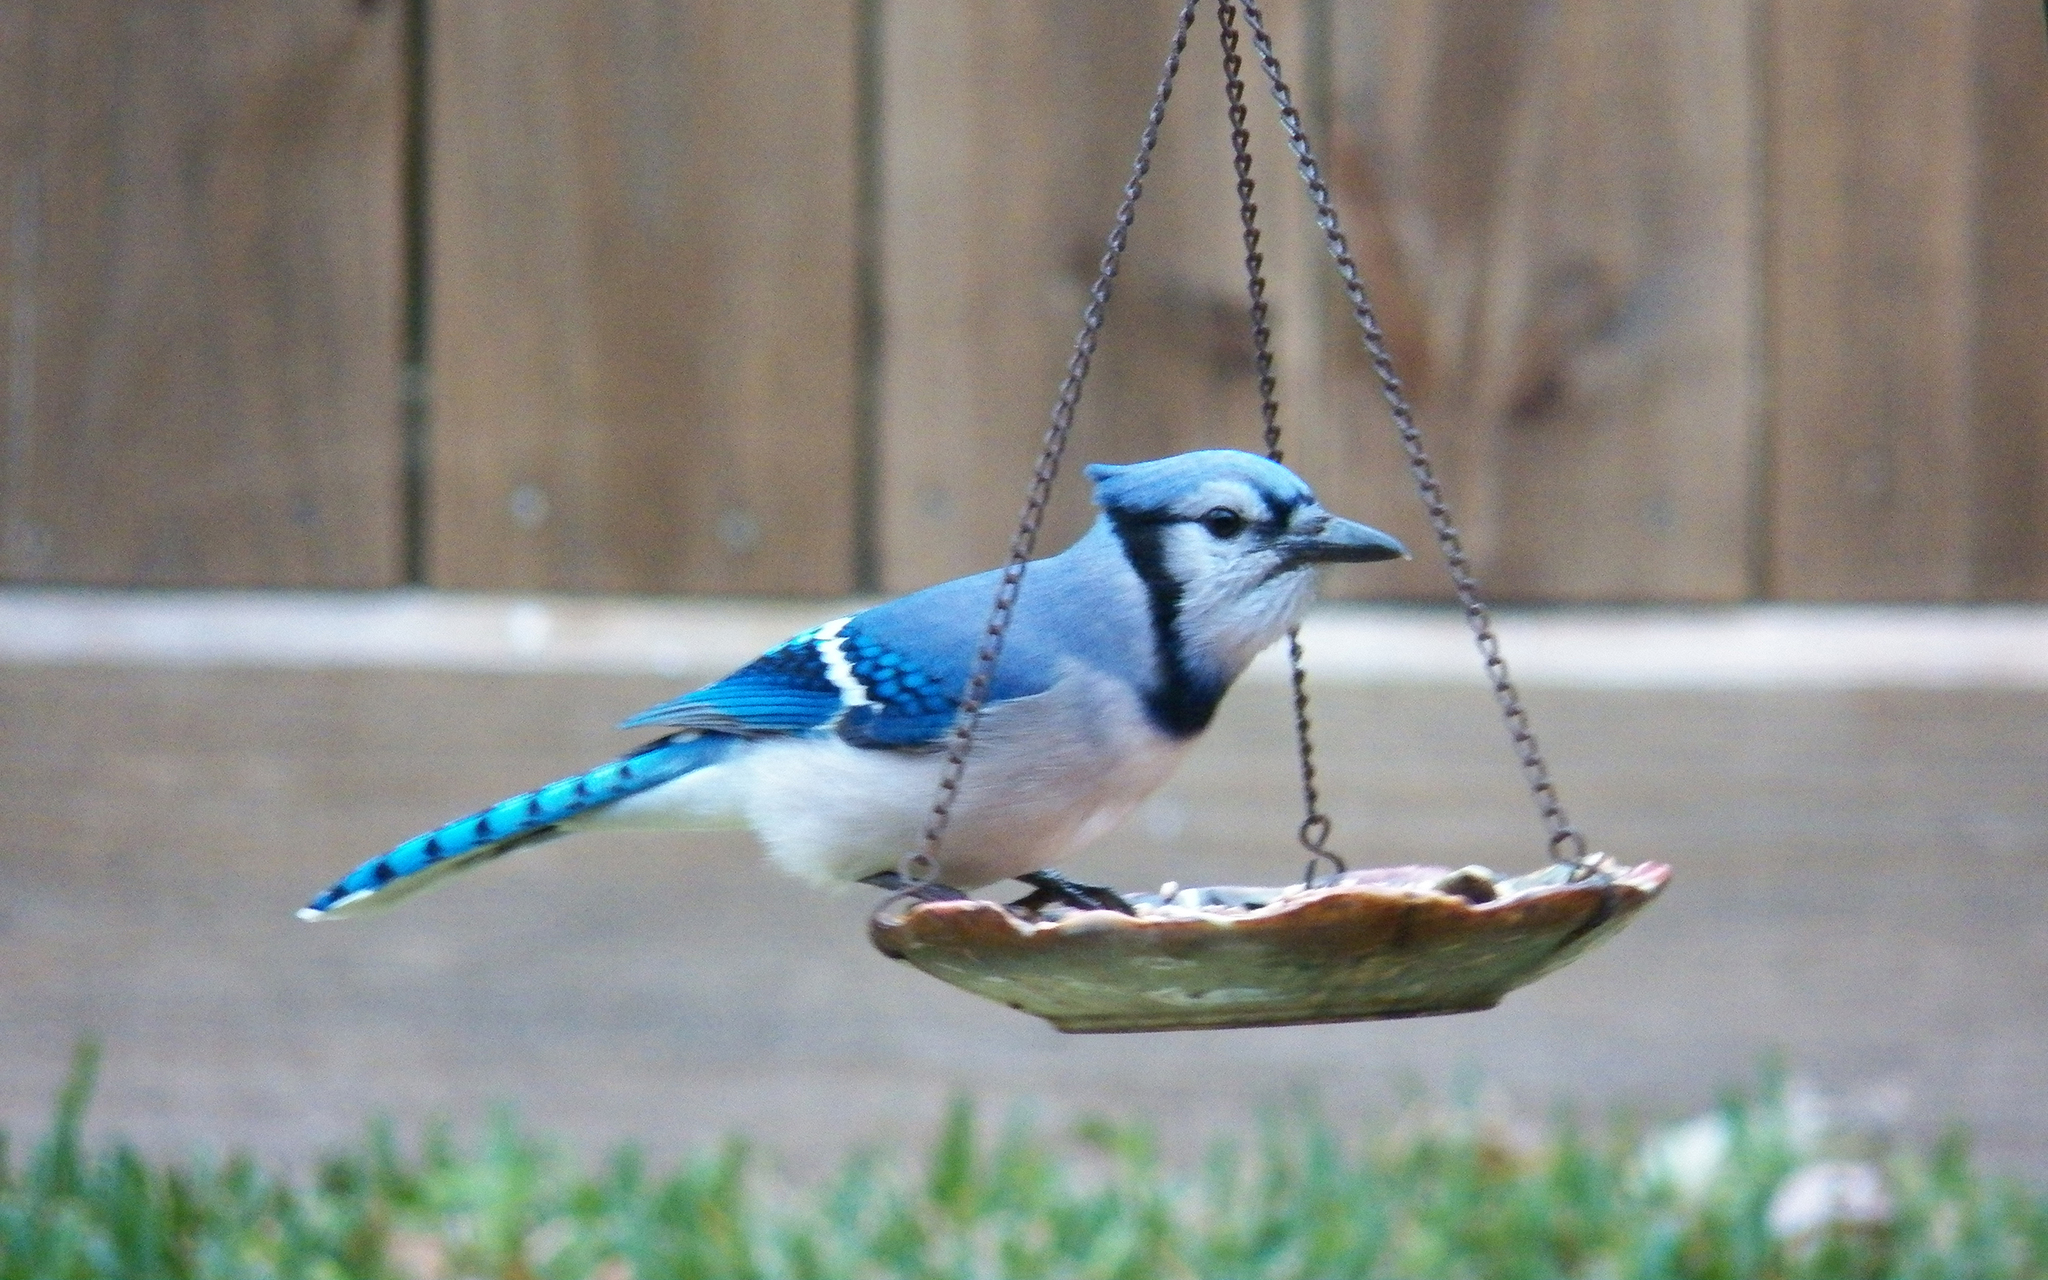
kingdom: Animalia
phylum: Chordata
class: Aves
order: Passeriformes
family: Corvidae
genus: Cyanocitta
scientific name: Cyanocitta cristata
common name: Blue jay
